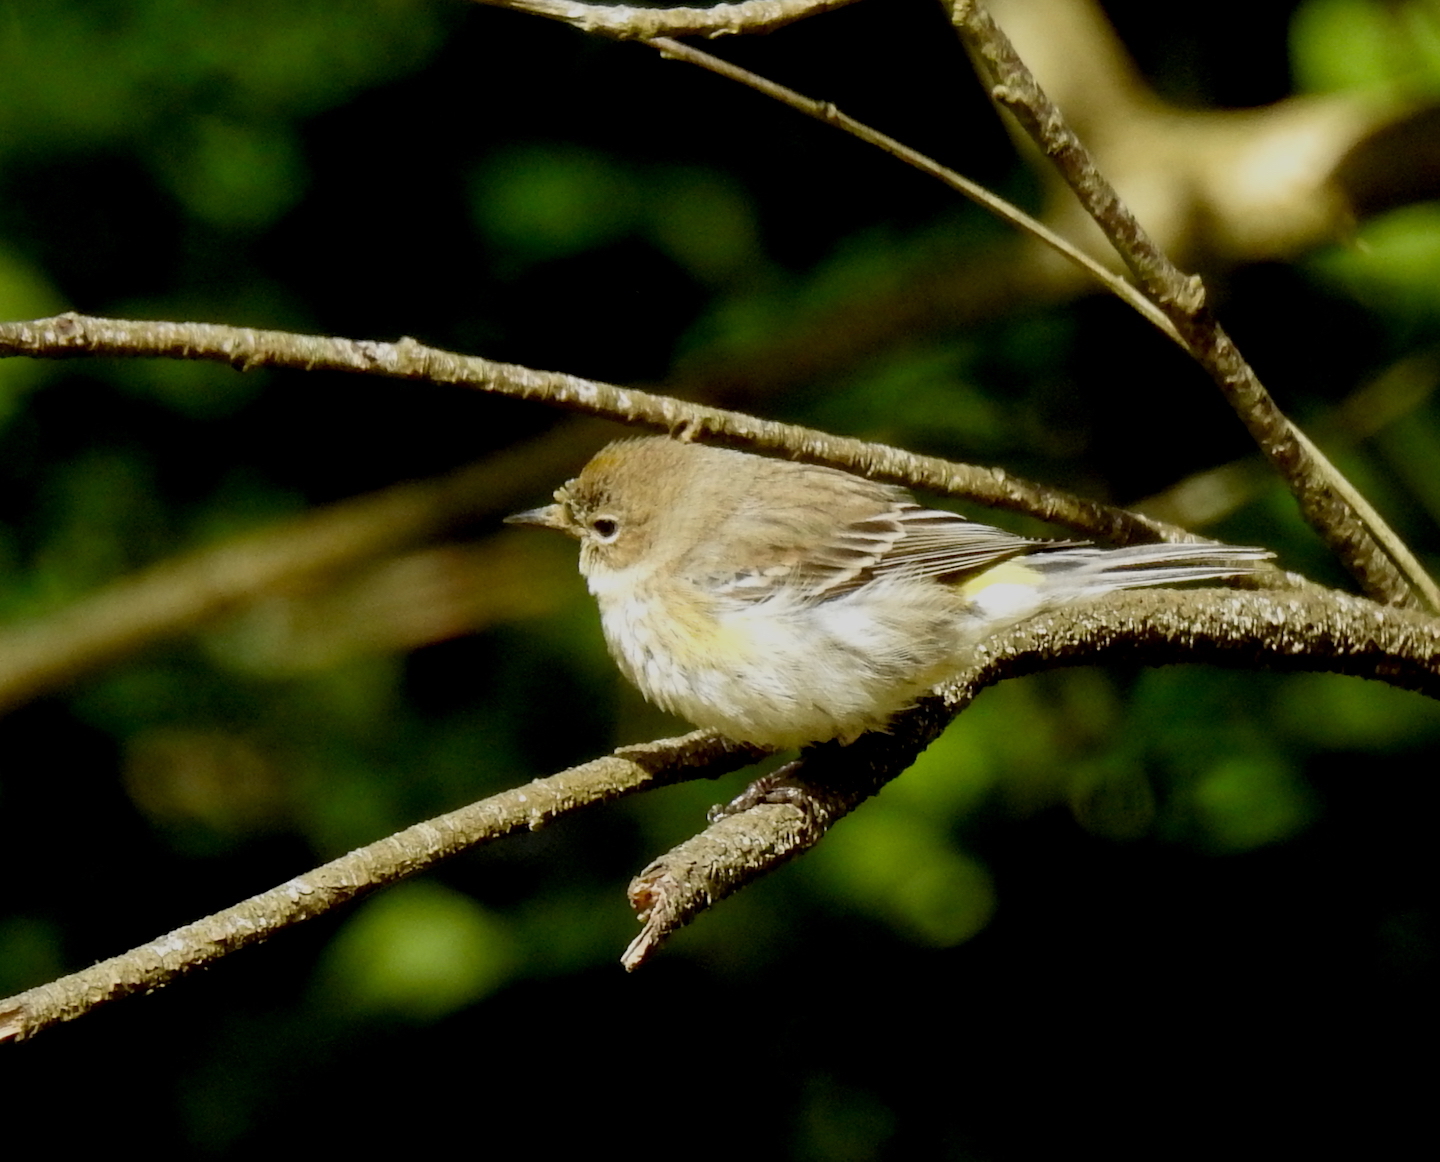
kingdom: Animalia
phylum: Chordata
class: Aves
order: Passeriformes
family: Parulidae
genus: Setophaga
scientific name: Setophaga coronata
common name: Myrtle warbler
